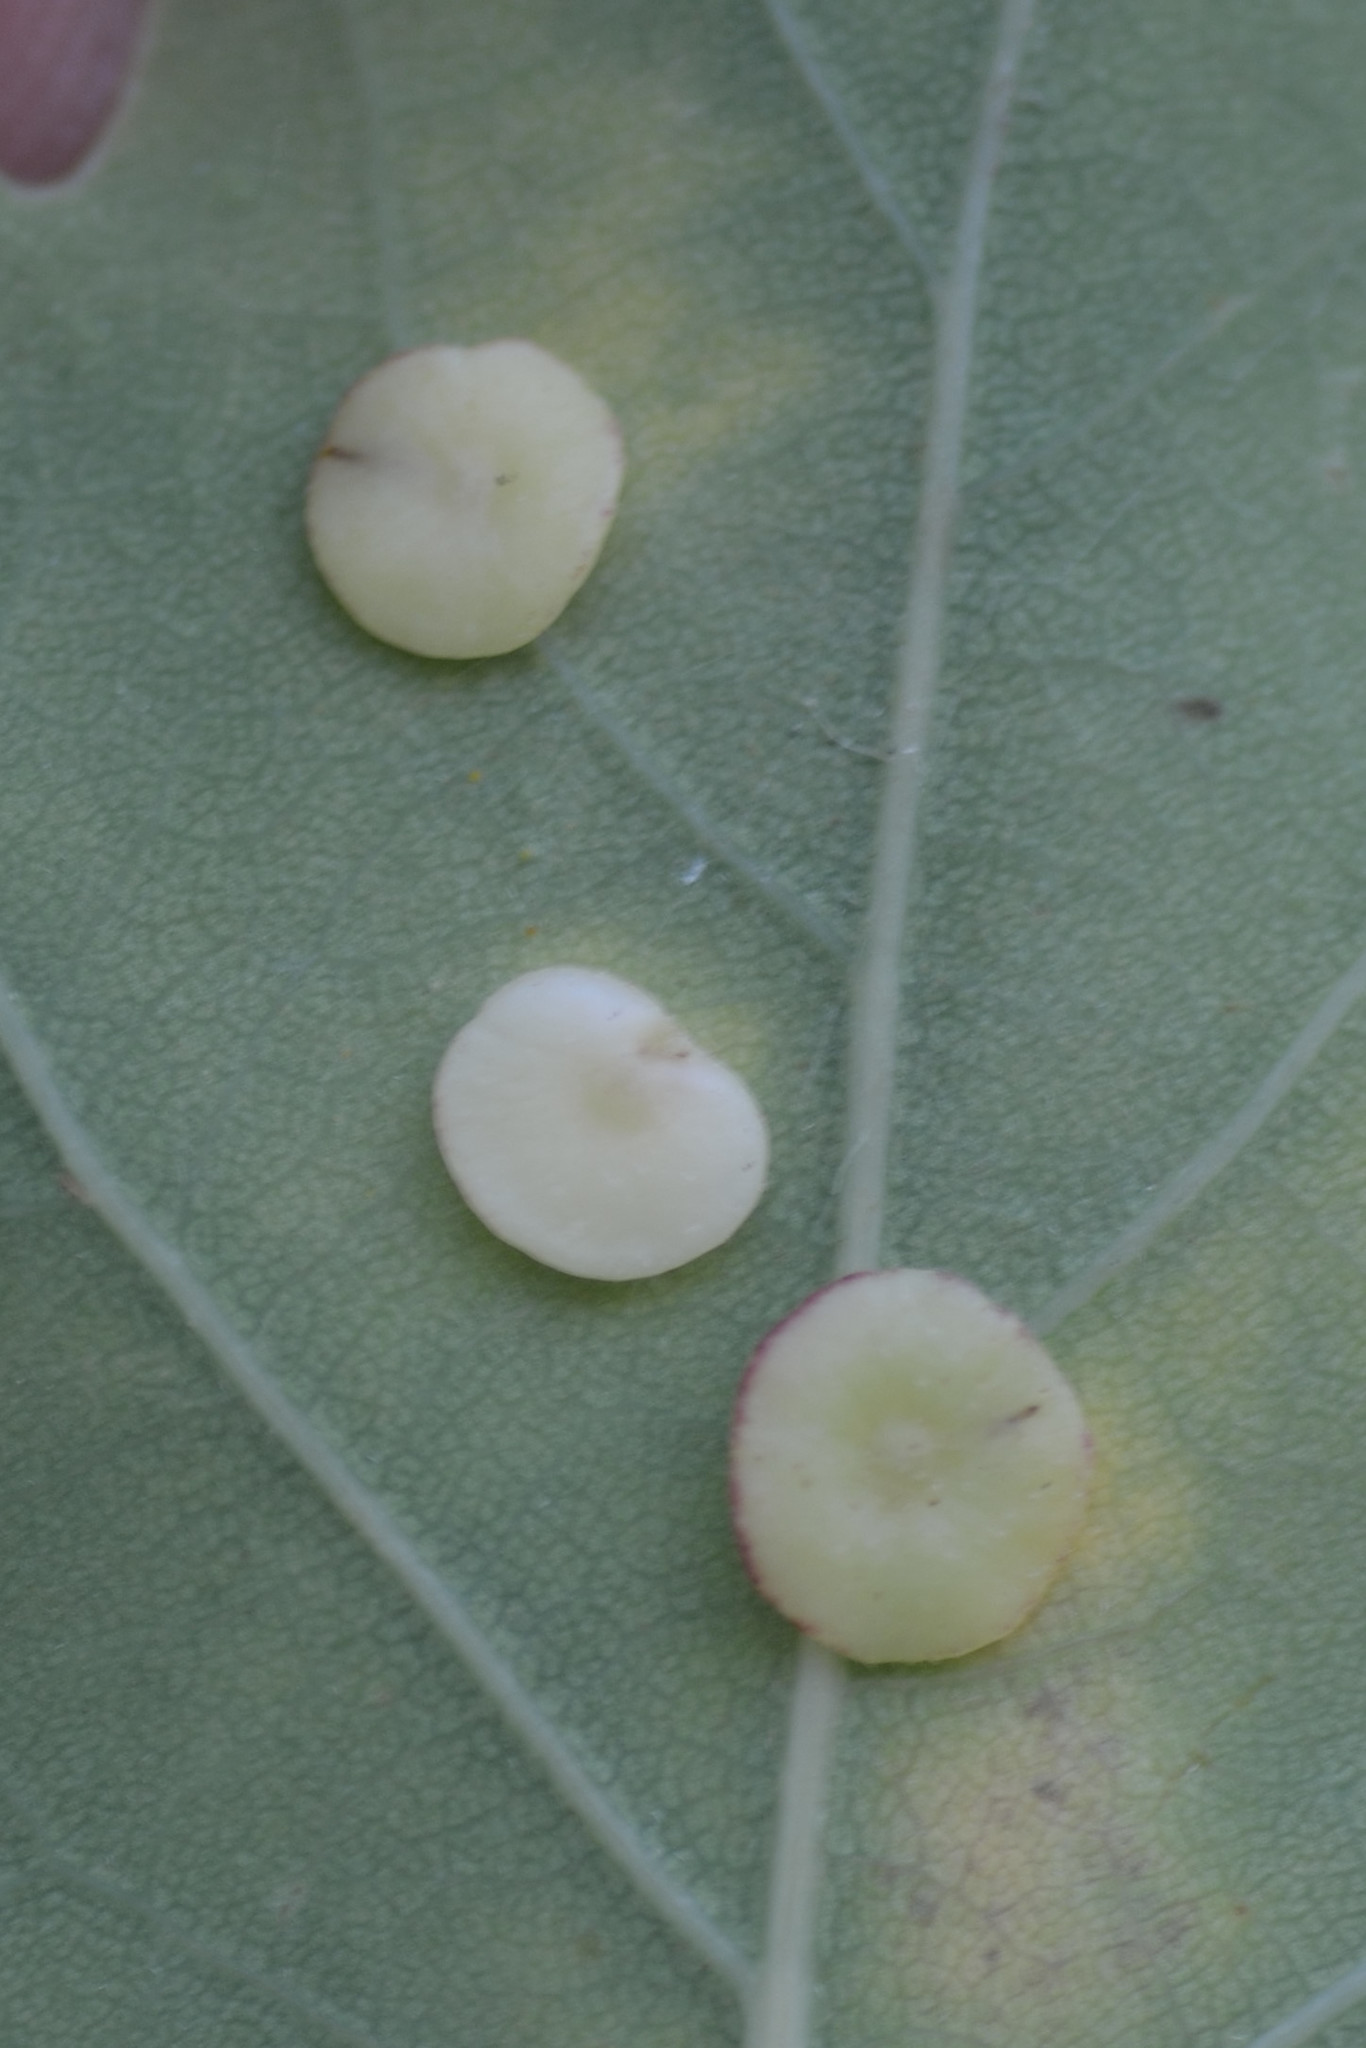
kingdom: Animalia
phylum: Arthropoda
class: Insecta
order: Hymenoptera
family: Cynipidae
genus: Neuroterus
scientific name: Neuroterus albipes
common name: Smooth spangle gall
